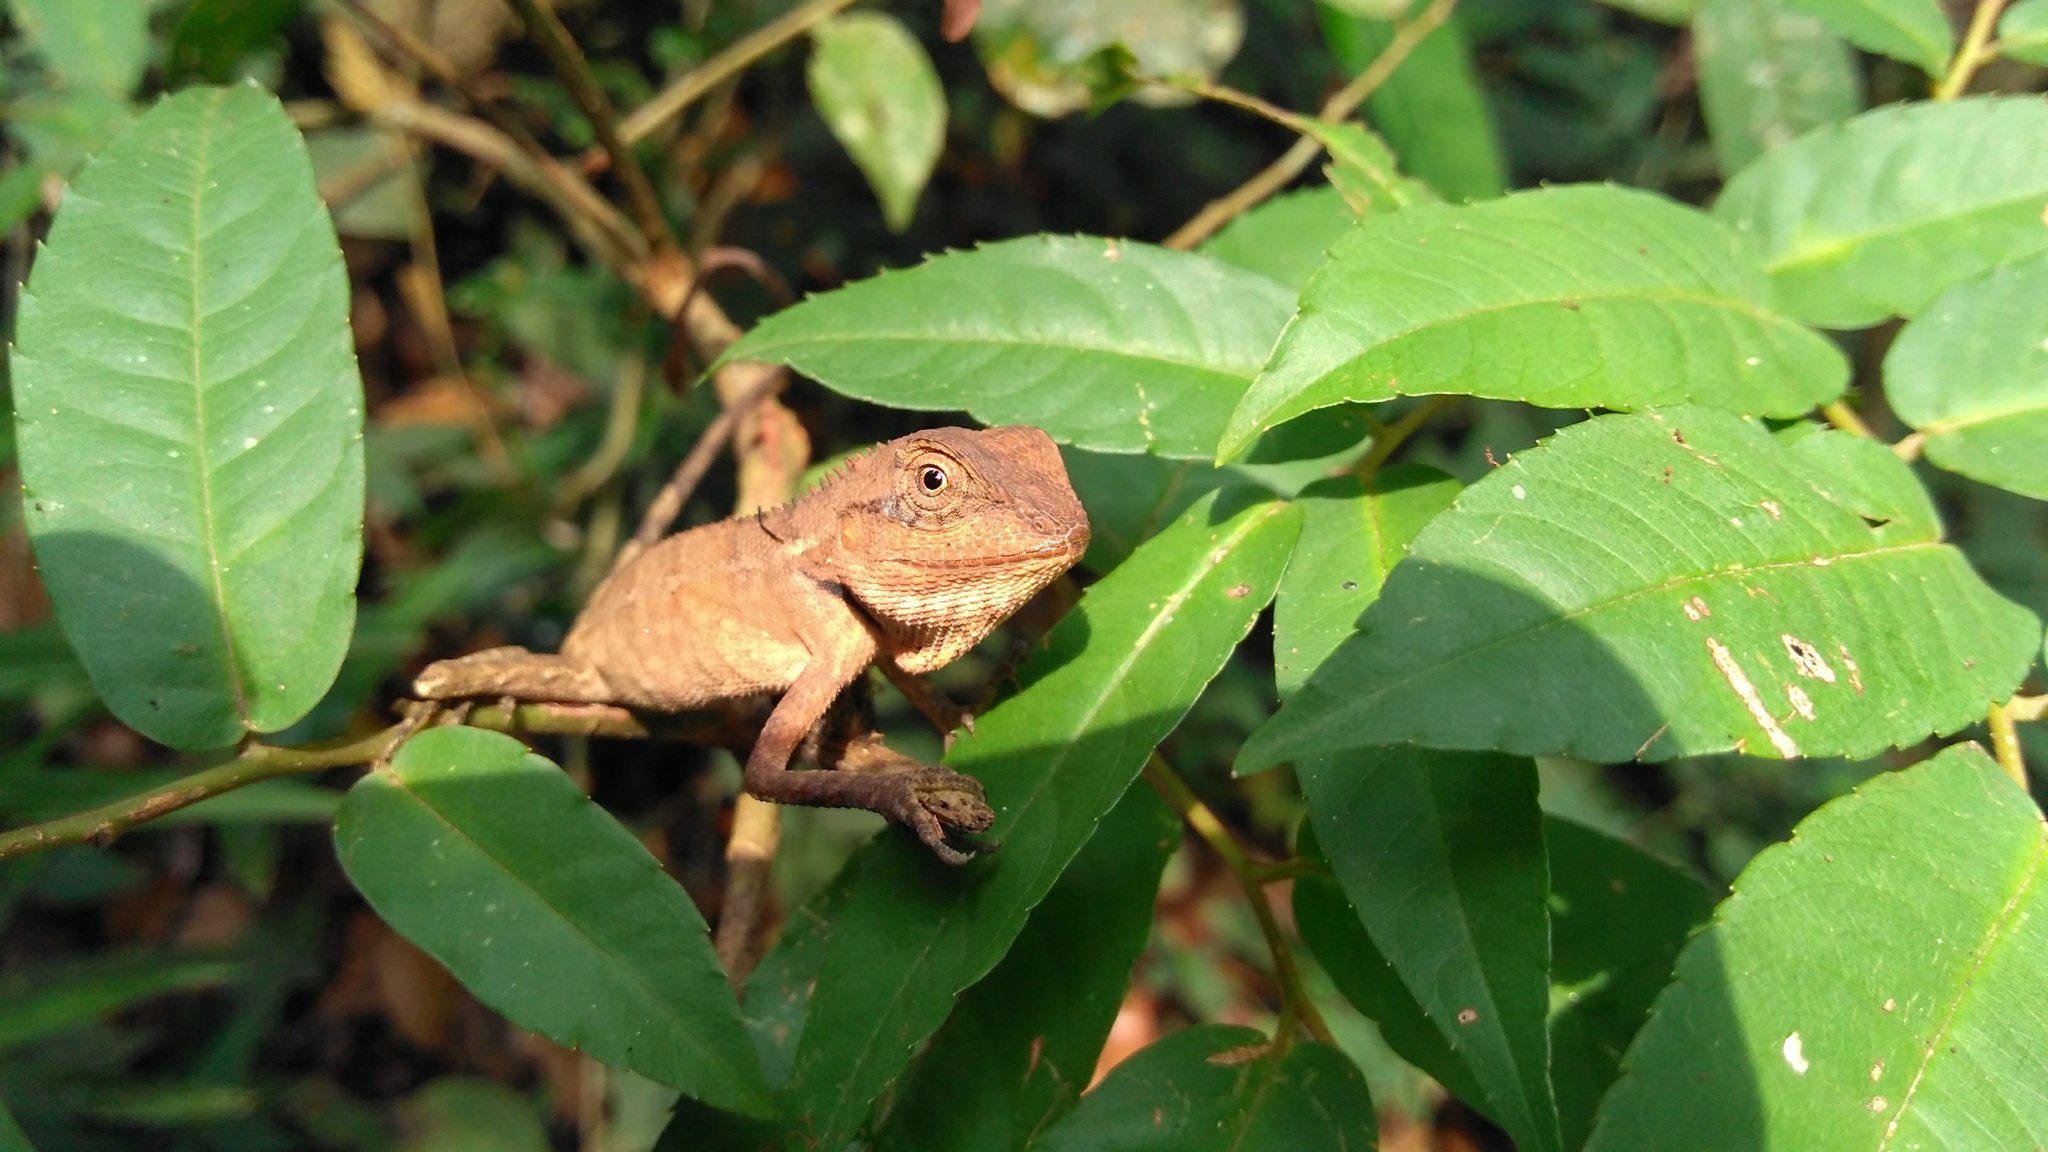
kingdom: Animalia
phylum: Chordata
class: Squamata
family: Agamidae
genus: Calotes
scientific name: Calotes emma
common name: Thailand bloodsucker
